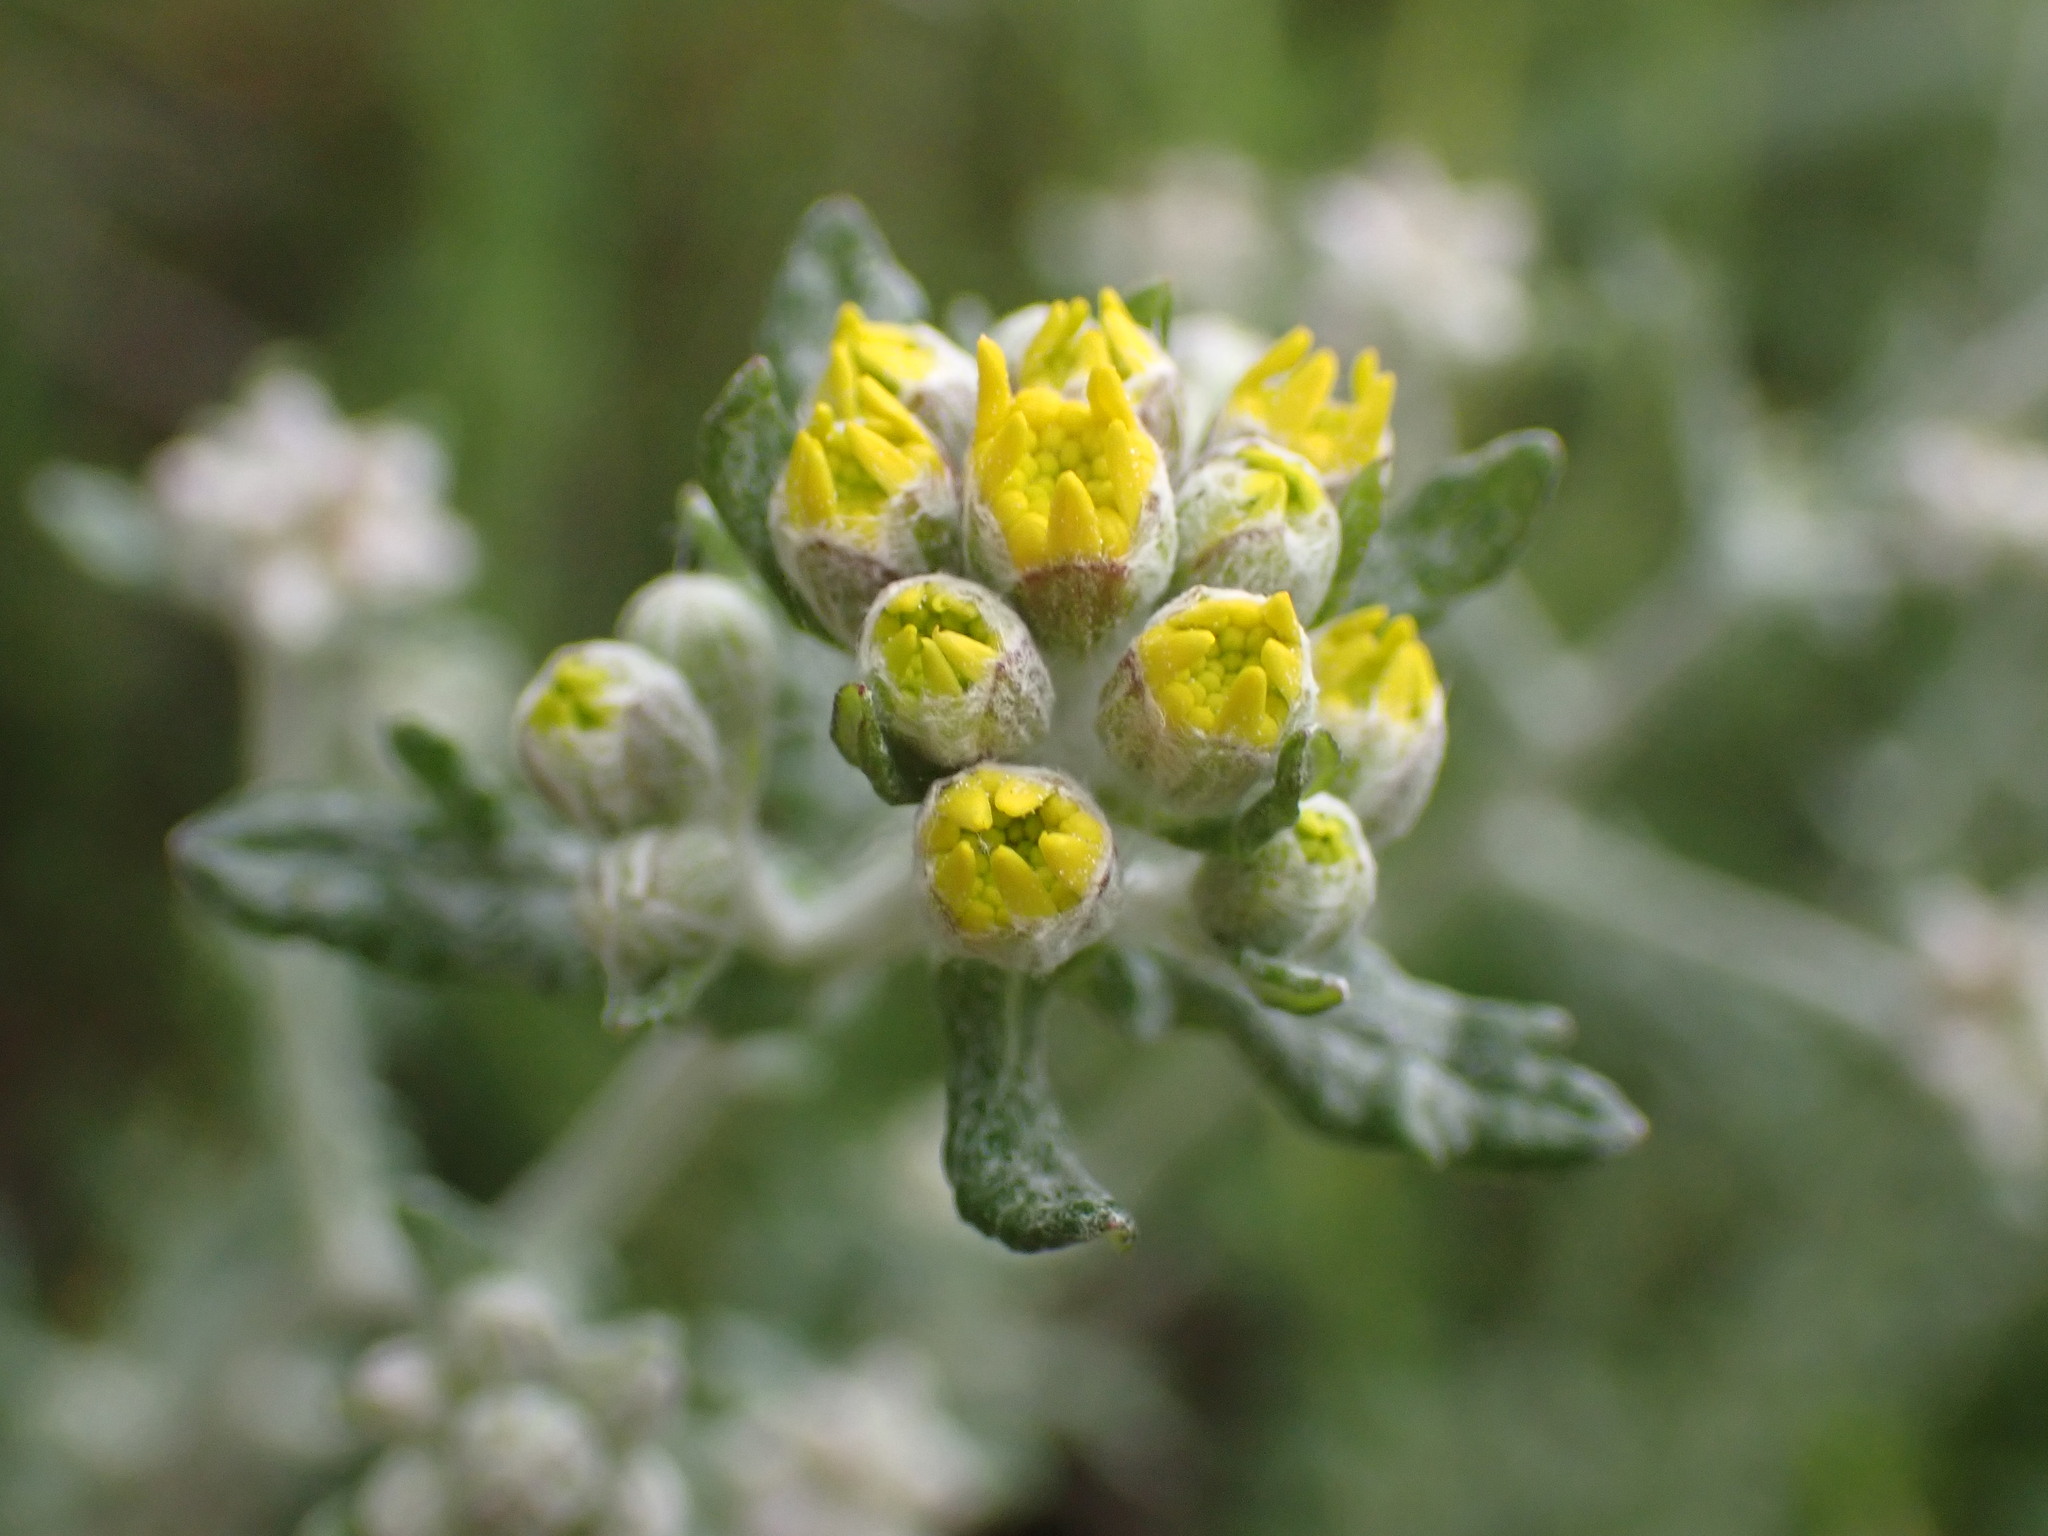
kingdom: Plantae
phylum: Tracheophyta
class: Magnoliopsida
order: Asterales
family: Asteraceae
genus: Eriophyllum
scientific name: Eriophyllum confertiflorum
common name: Golden-yarrow
